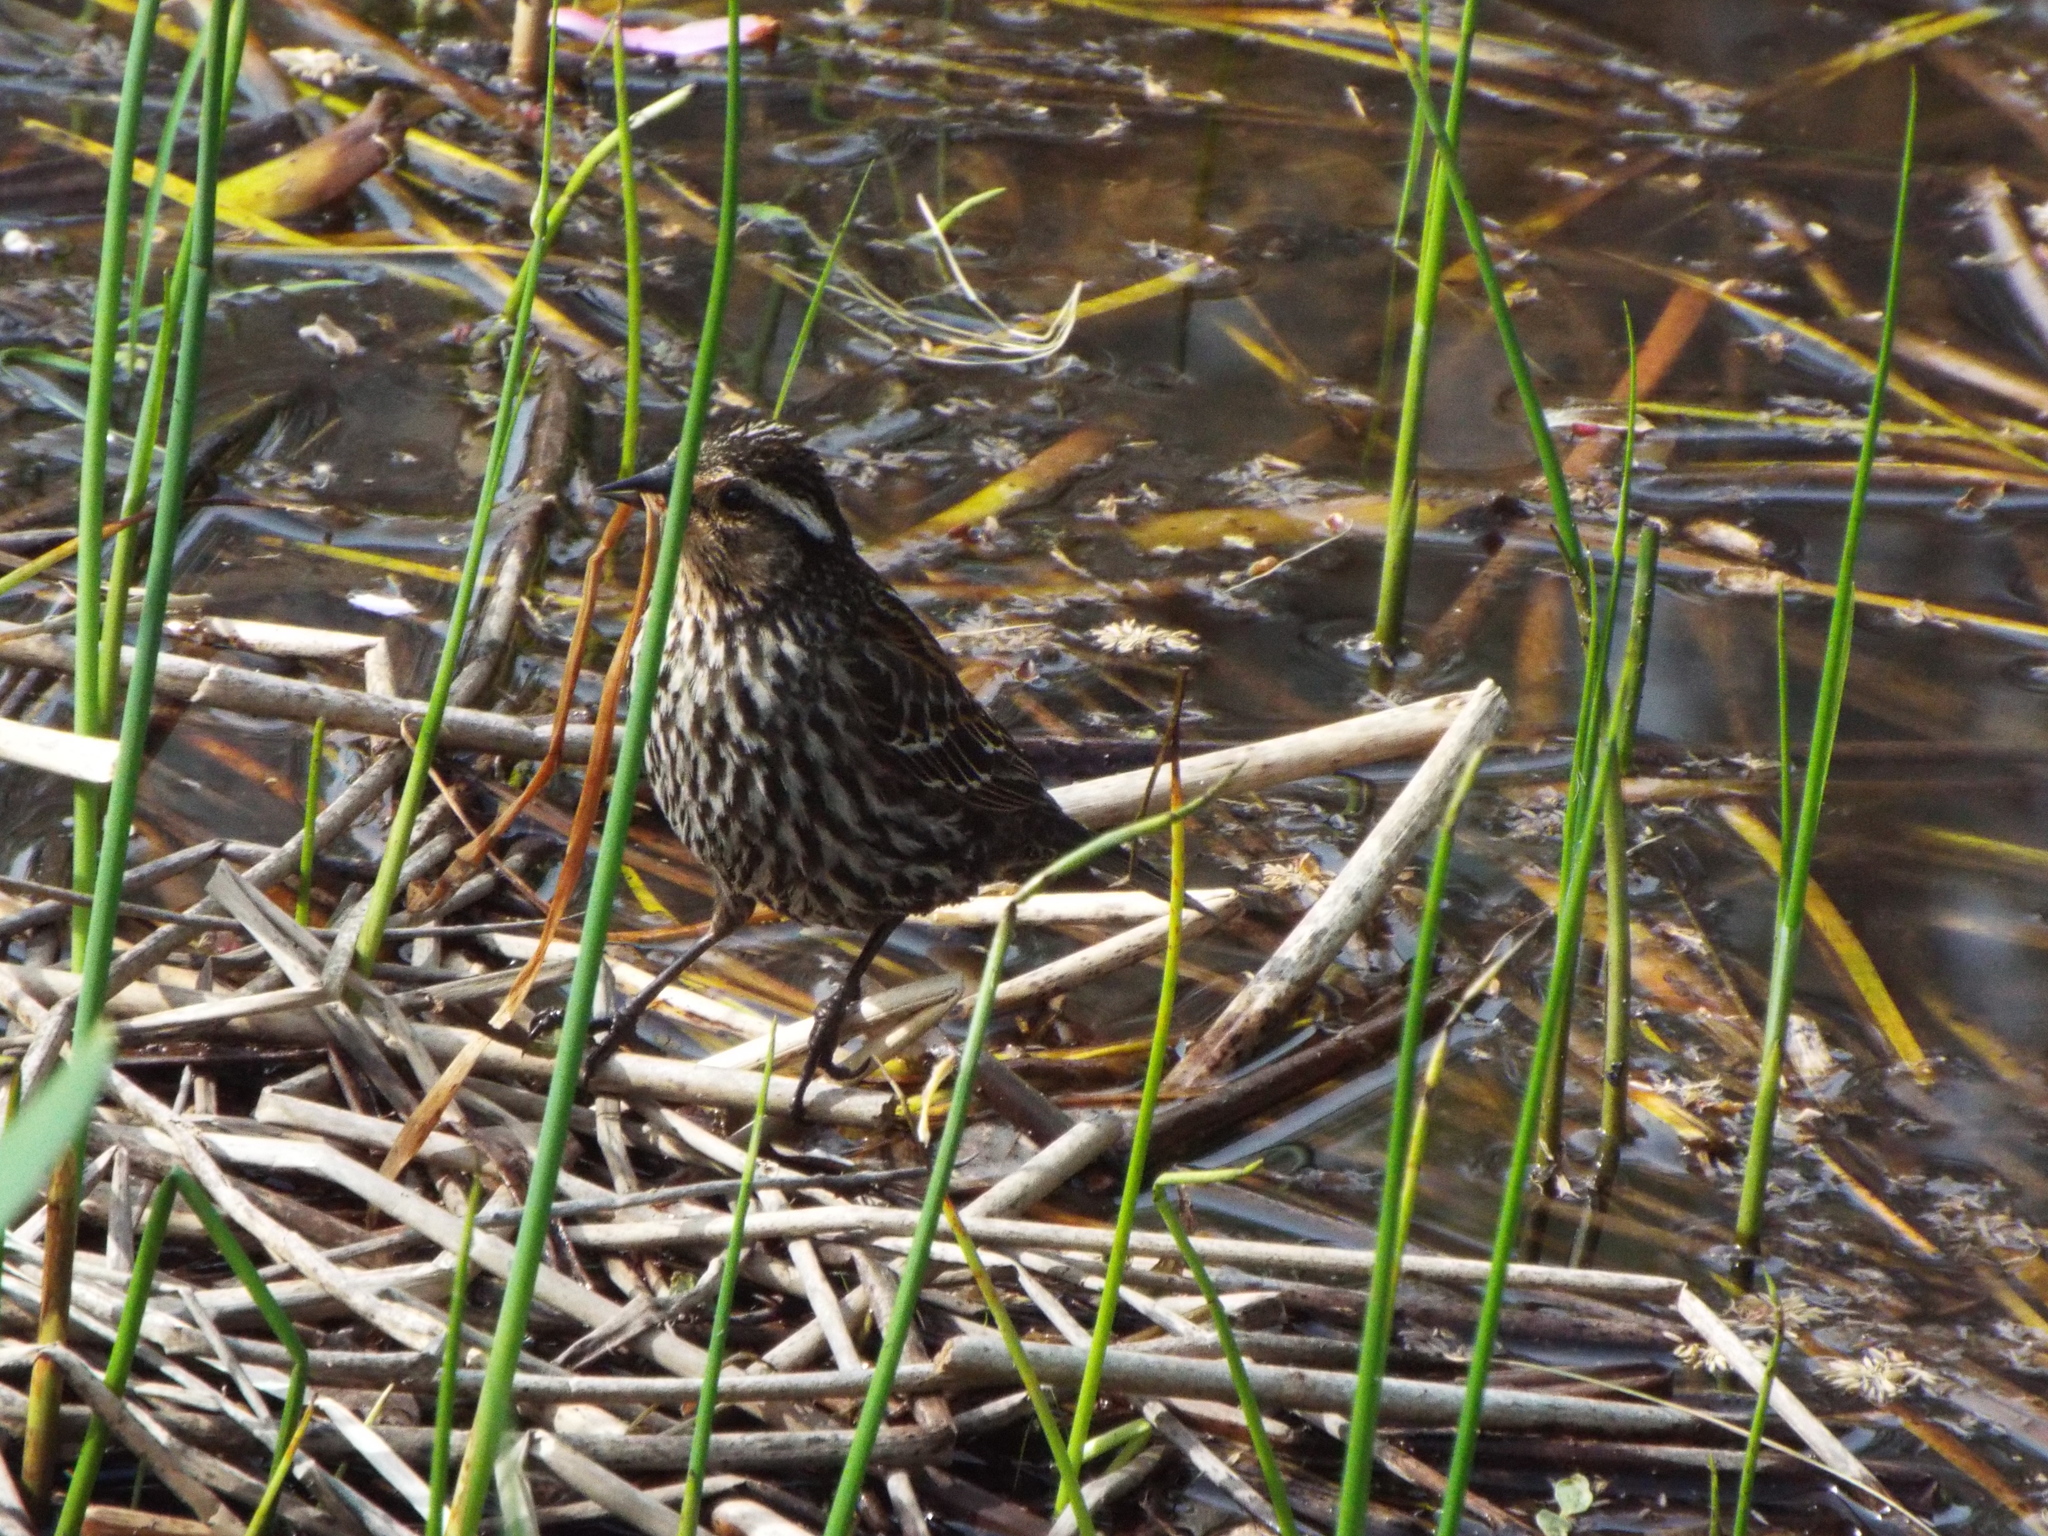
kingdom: Animalia
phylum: Chordata
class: Aves
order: Passeriformes
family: Icteridae
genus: Agelaius
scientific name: Agelaius phoeniceus
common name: Red-winged blackbird
